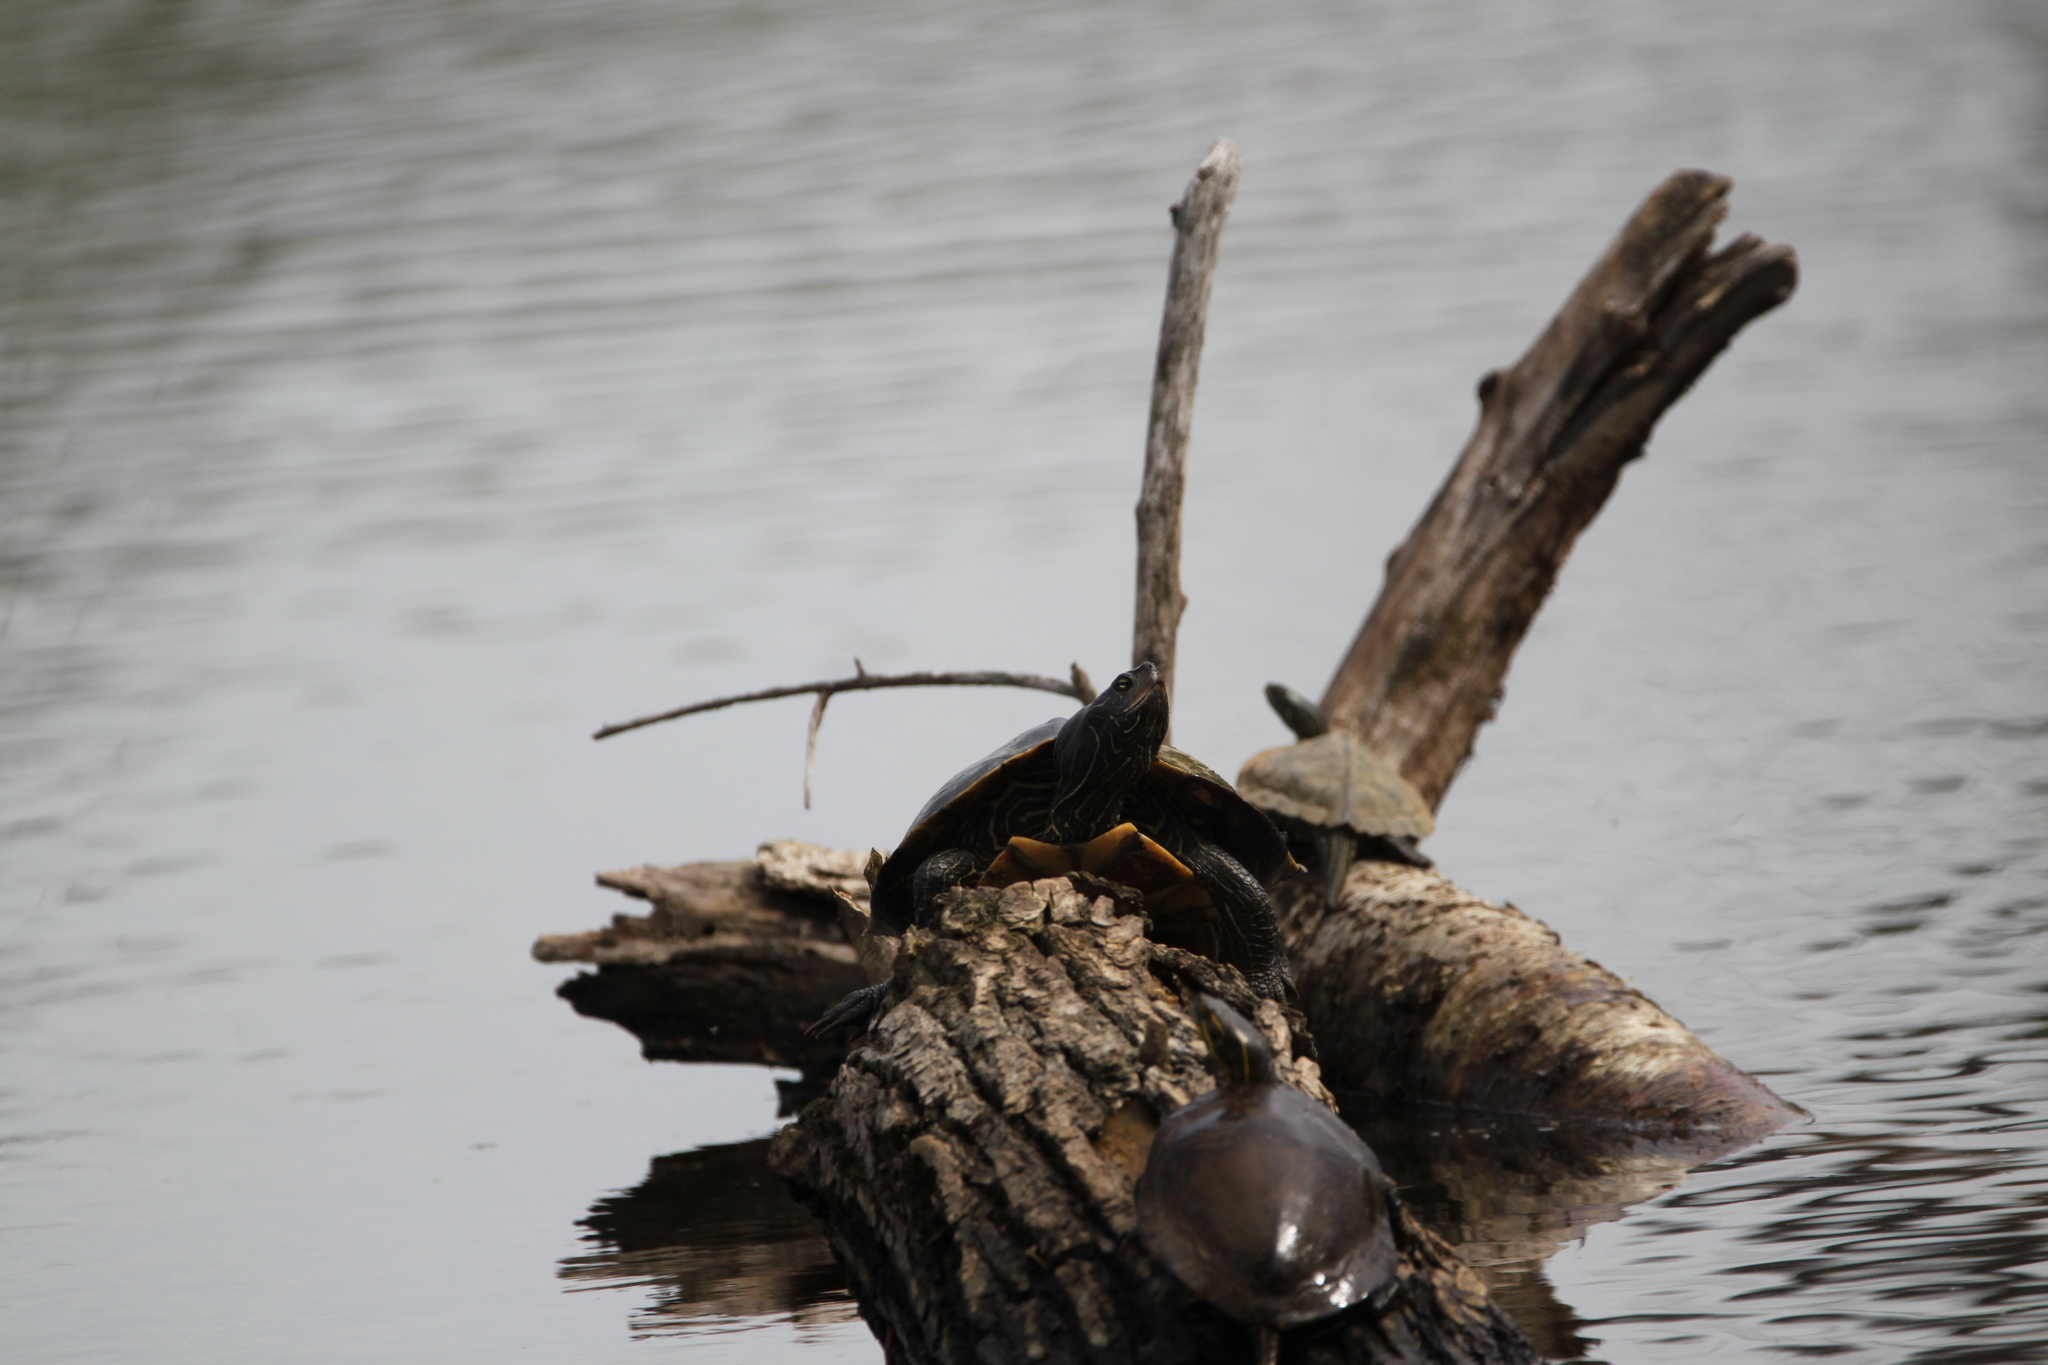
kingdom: Animalia
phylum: Chordata
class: Testudines
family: Emydidae
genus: Graptemys
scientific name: Graptemys geographica
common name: Common map turtle
